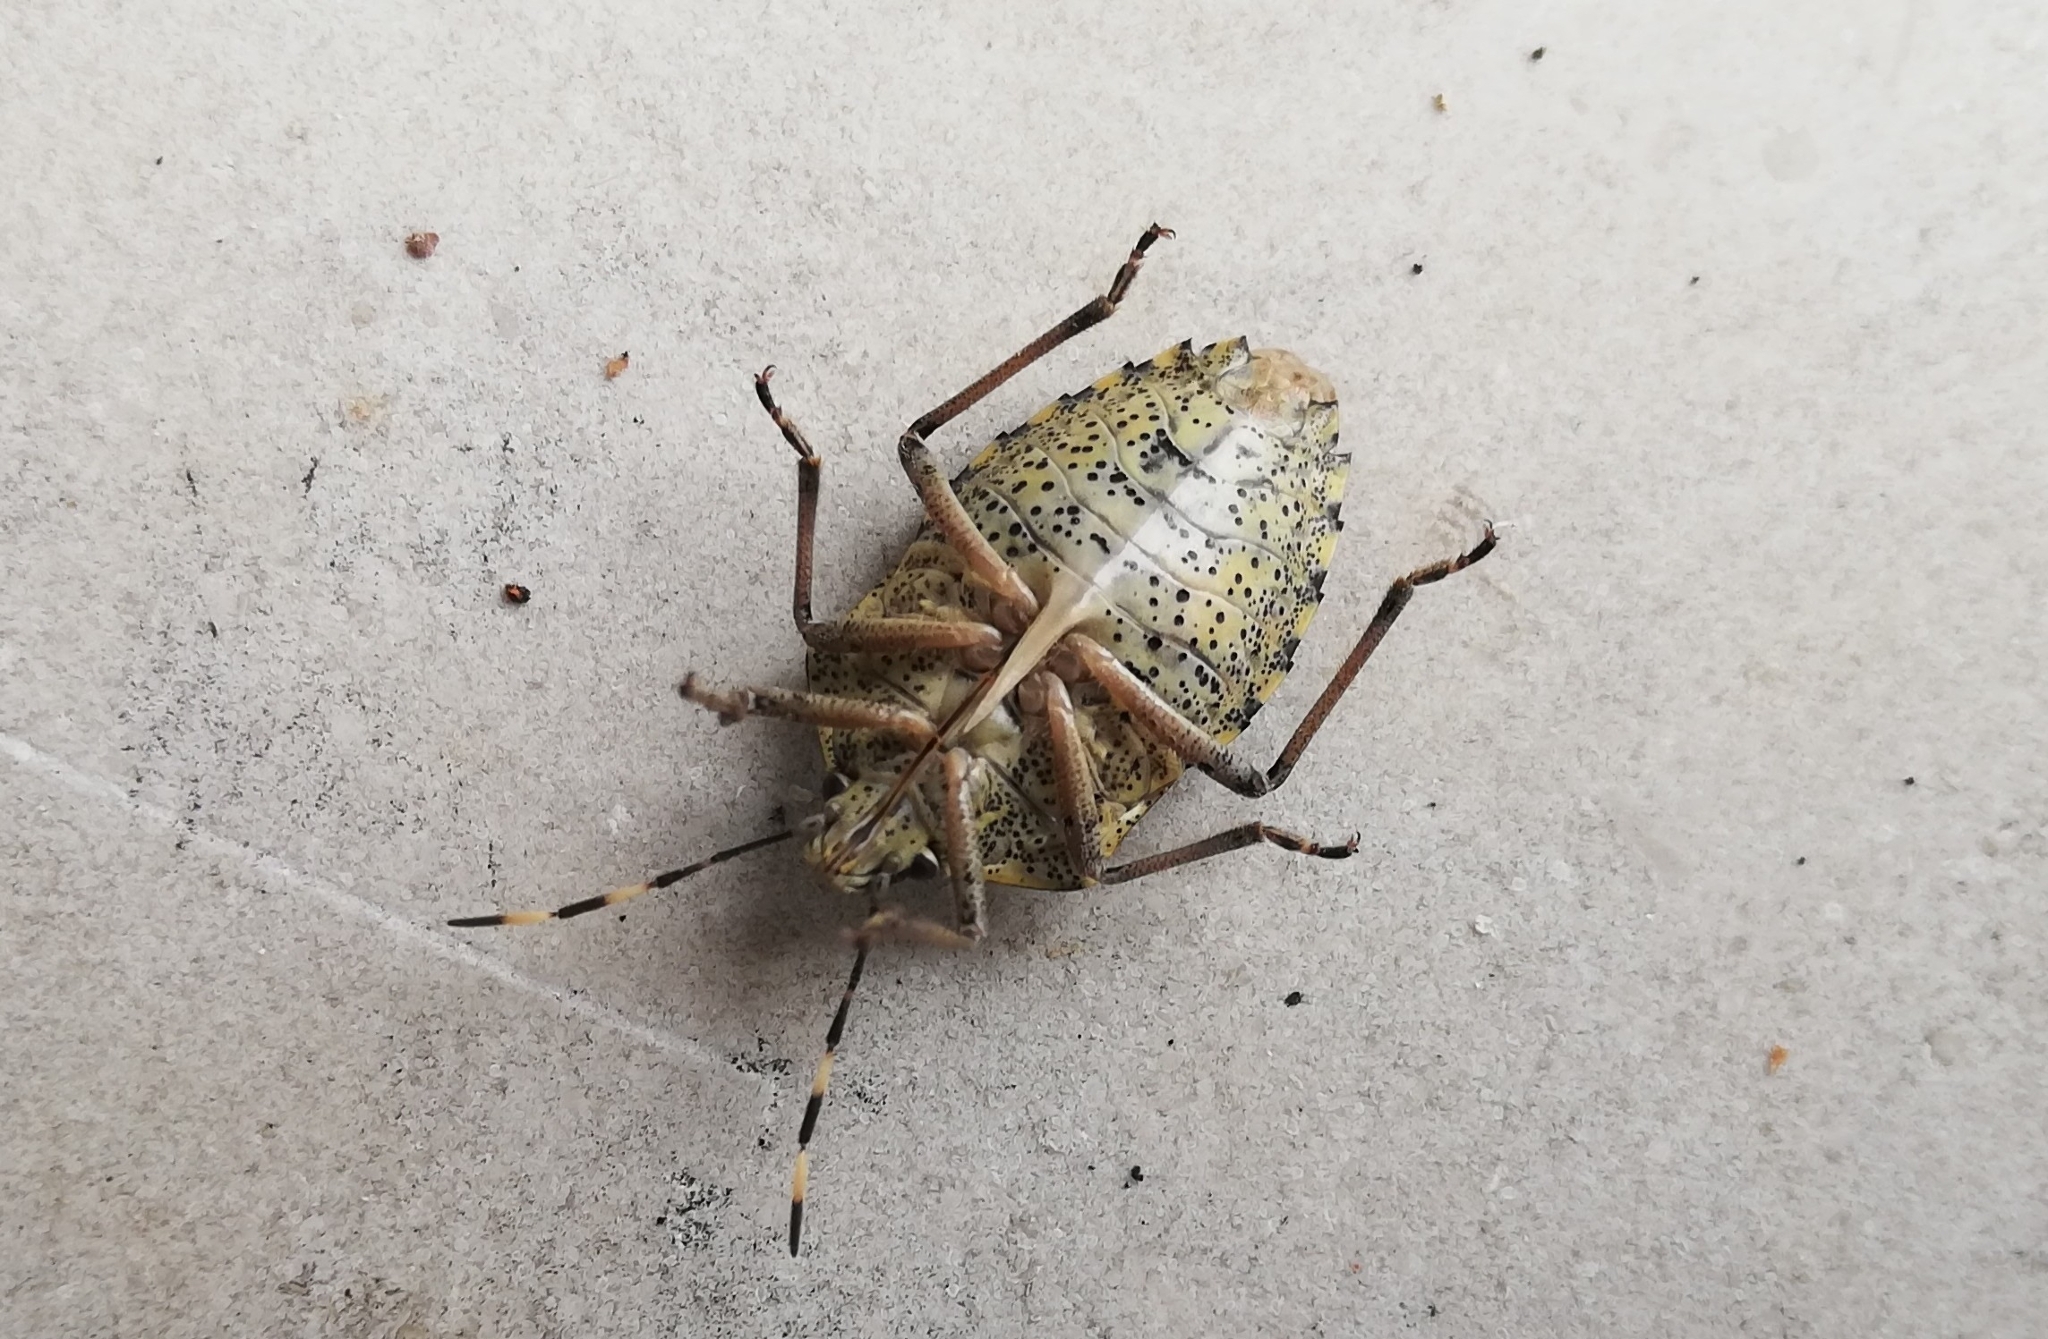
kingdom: Animalia
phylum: Arthropoda
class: Insecta
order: Hemiptera
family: Pentatomidae
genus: Rhaphigaster
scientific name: Rhaphigaster nebulosa
